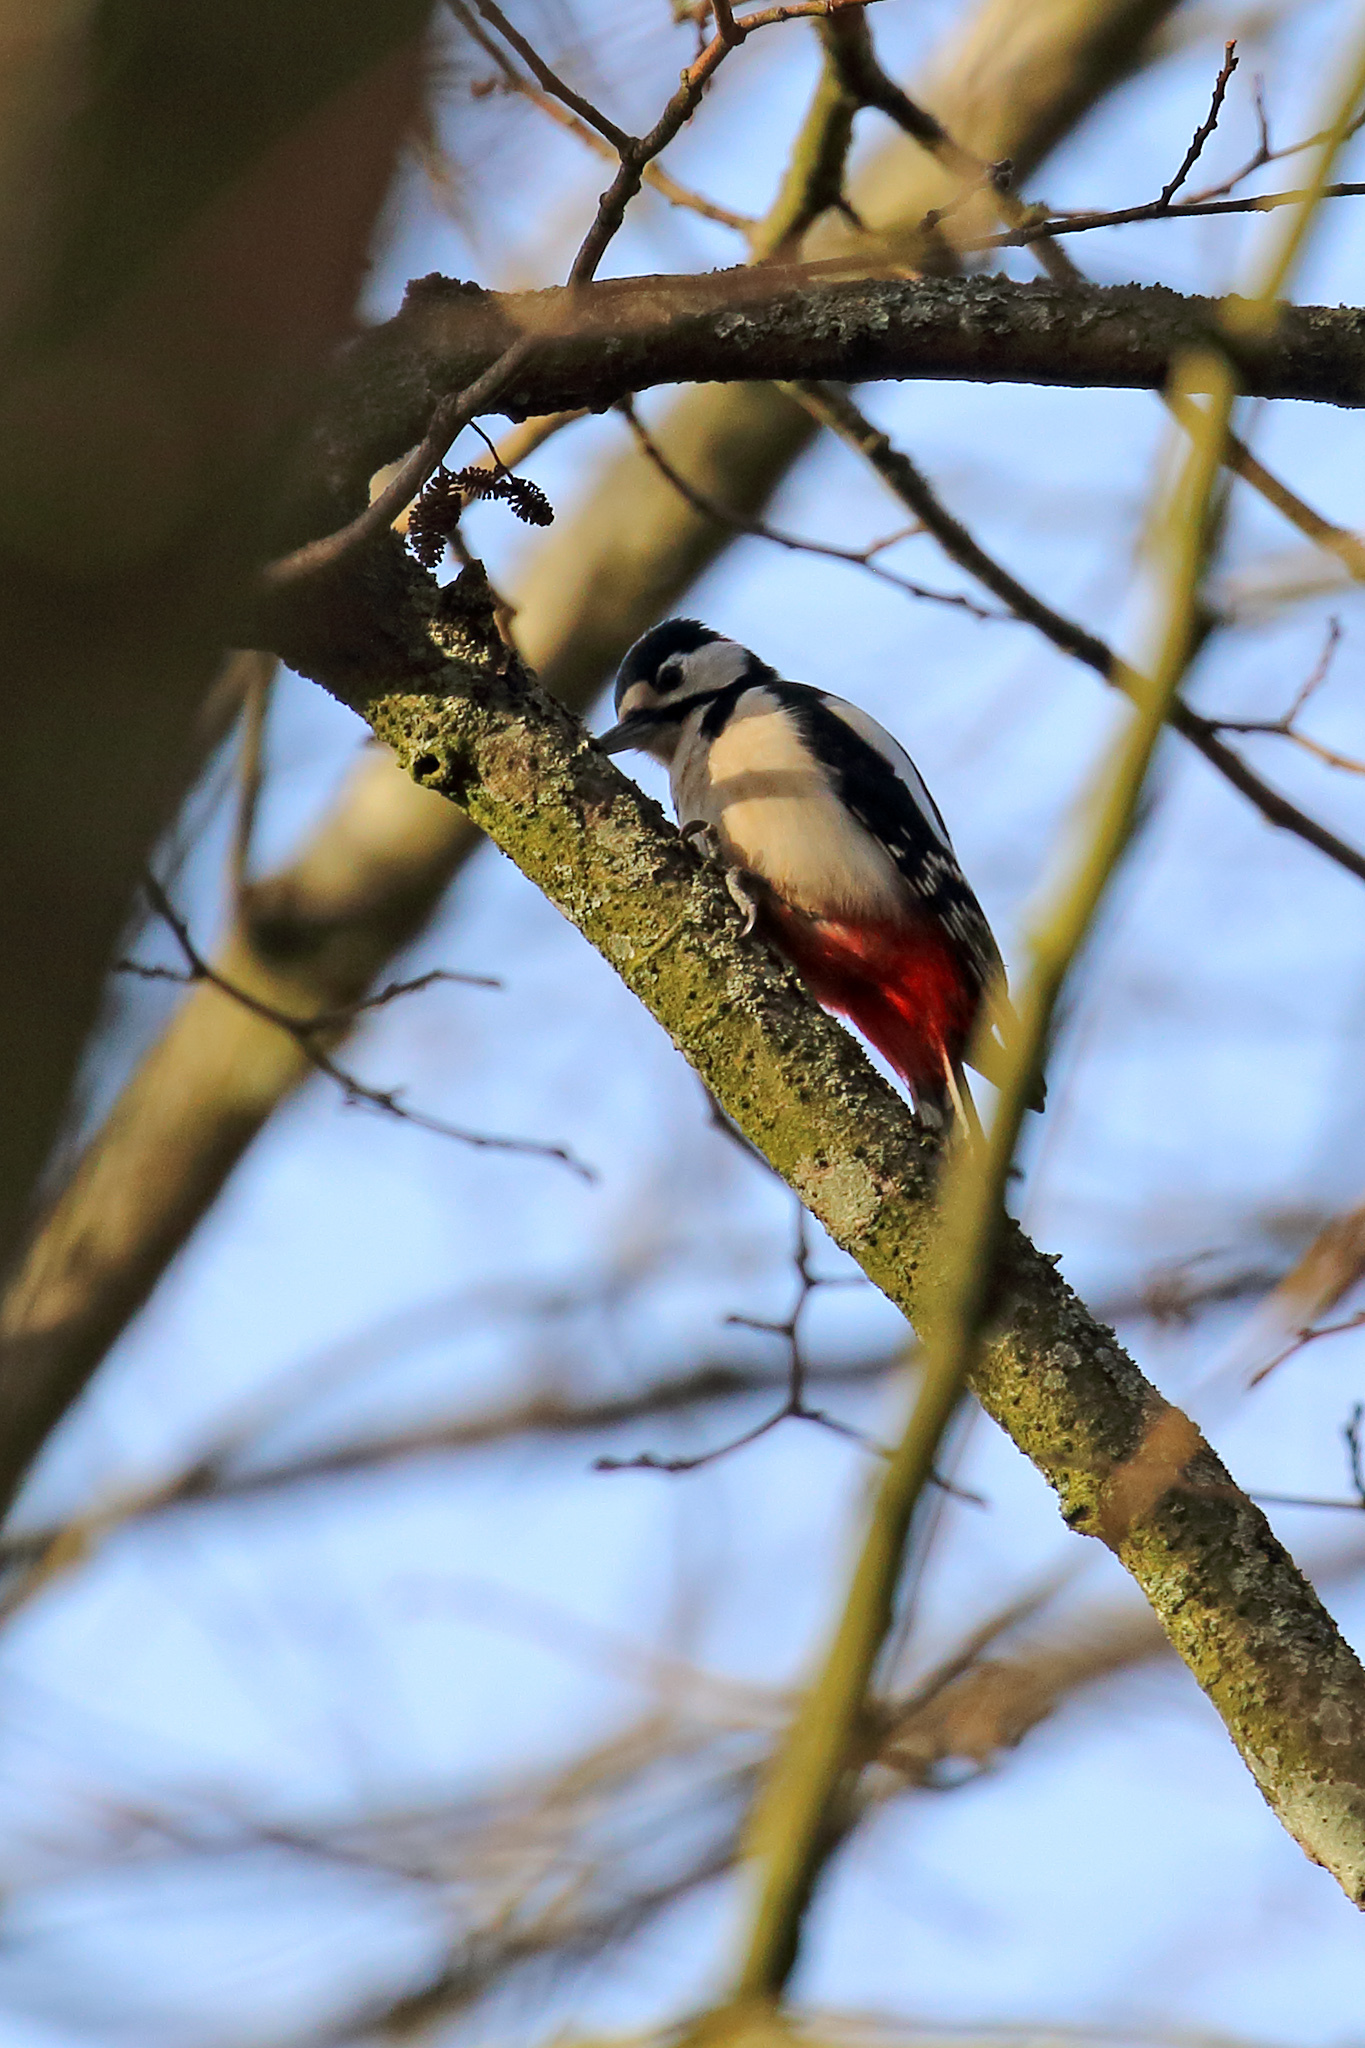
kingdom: Animalia
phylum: Chordata
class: Aves
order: Piciformes
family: Picidae
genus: Dendrocopos
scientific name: Dendrocopos major
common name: Great spotted woodpecker
